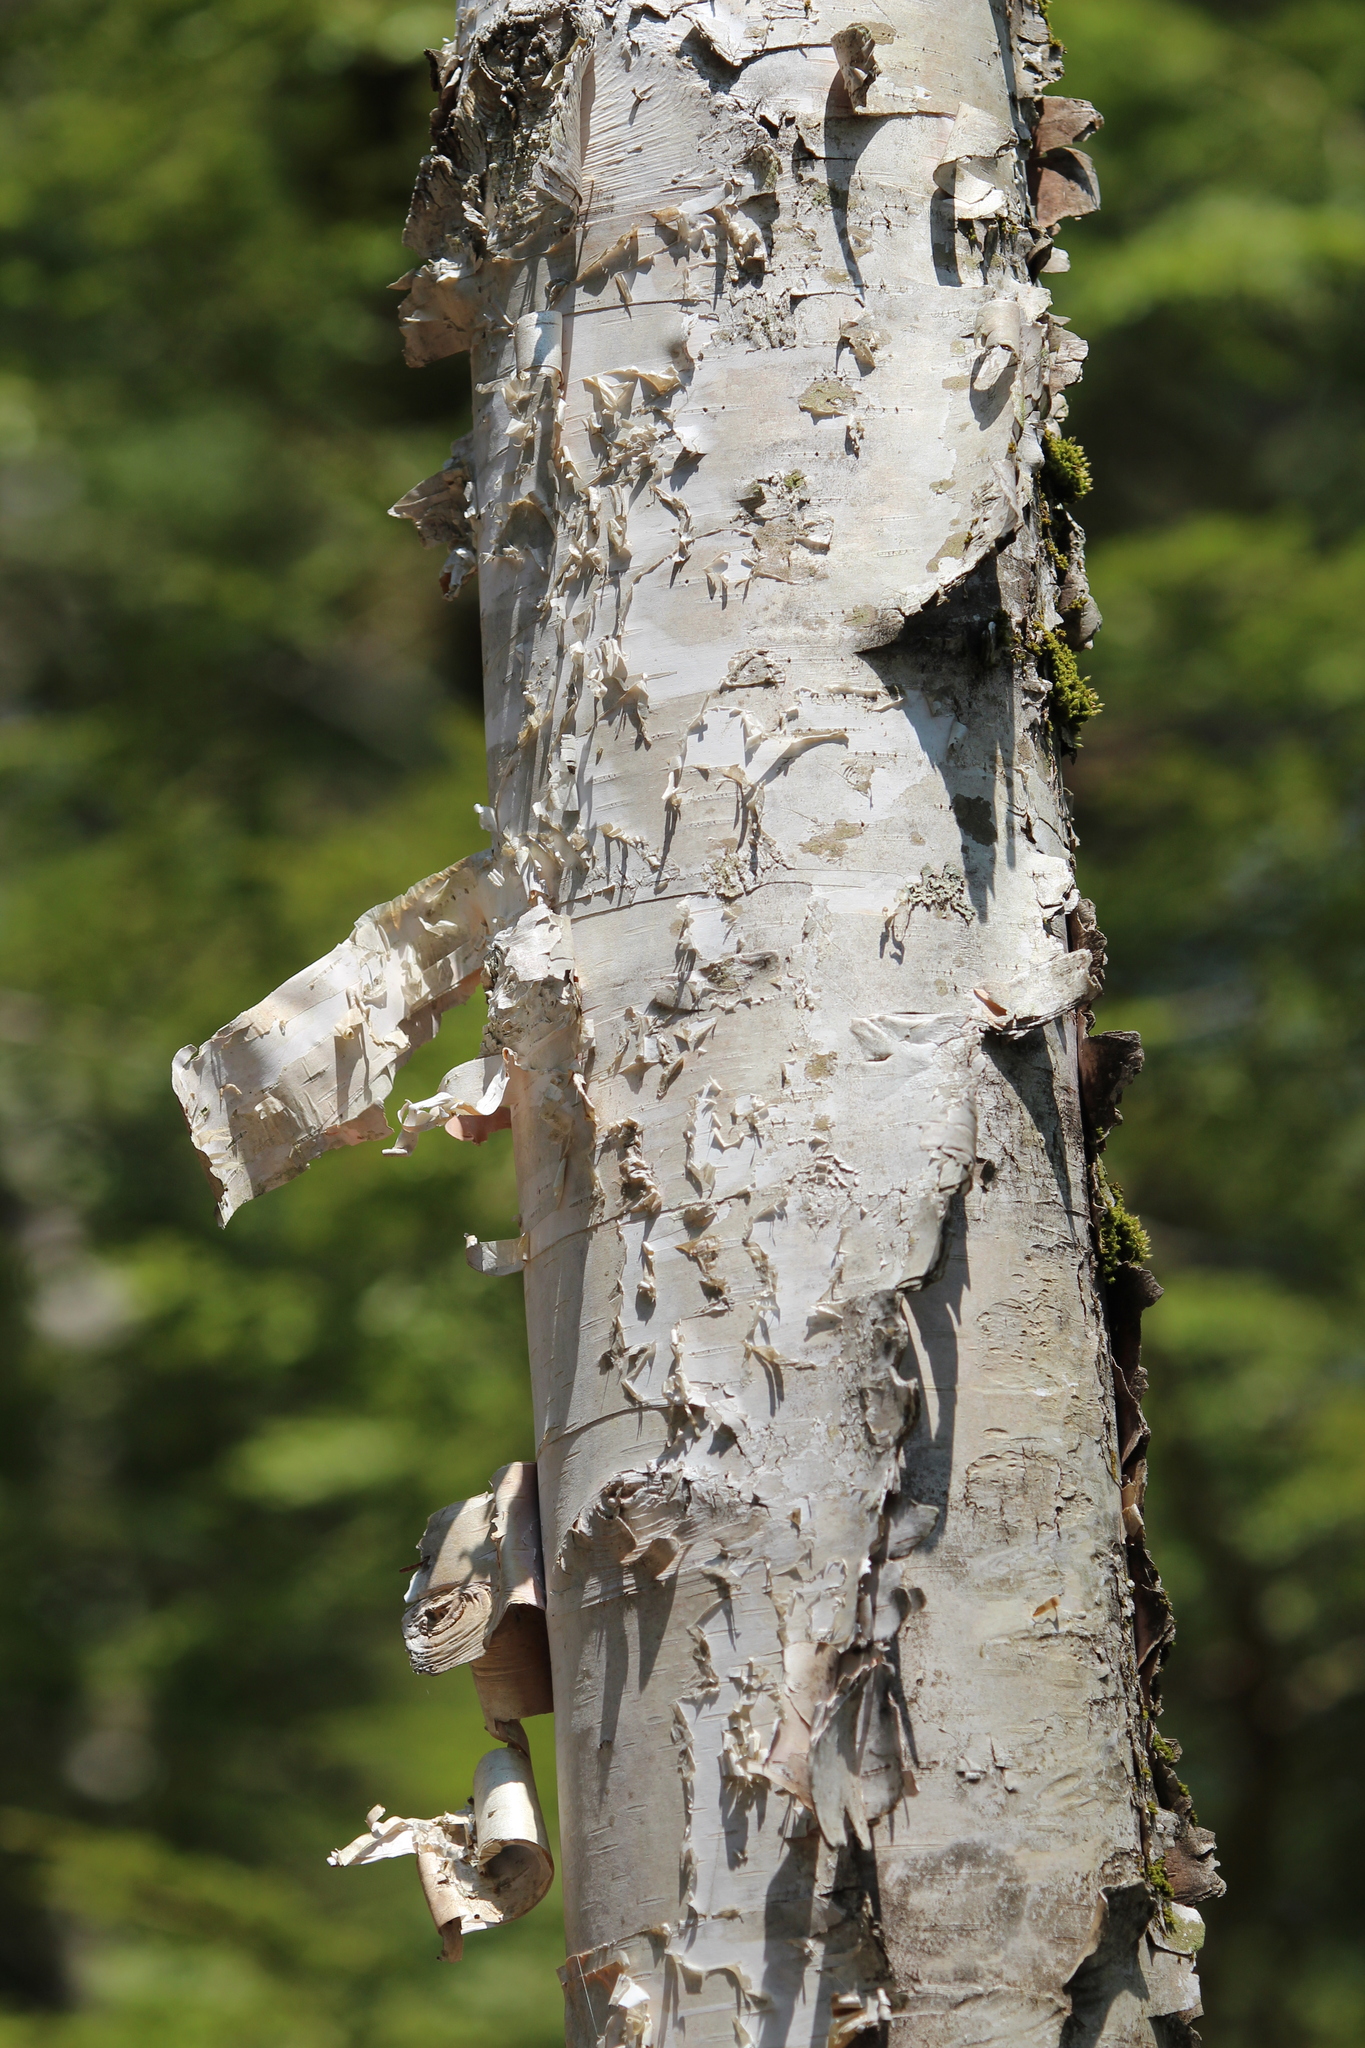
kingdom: Plantae
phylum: Tracheophyta
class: Magnoliopsida
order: Fagales
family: Betulaceae
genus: Betula
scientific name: Betula papyrifera
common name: Paper birch
